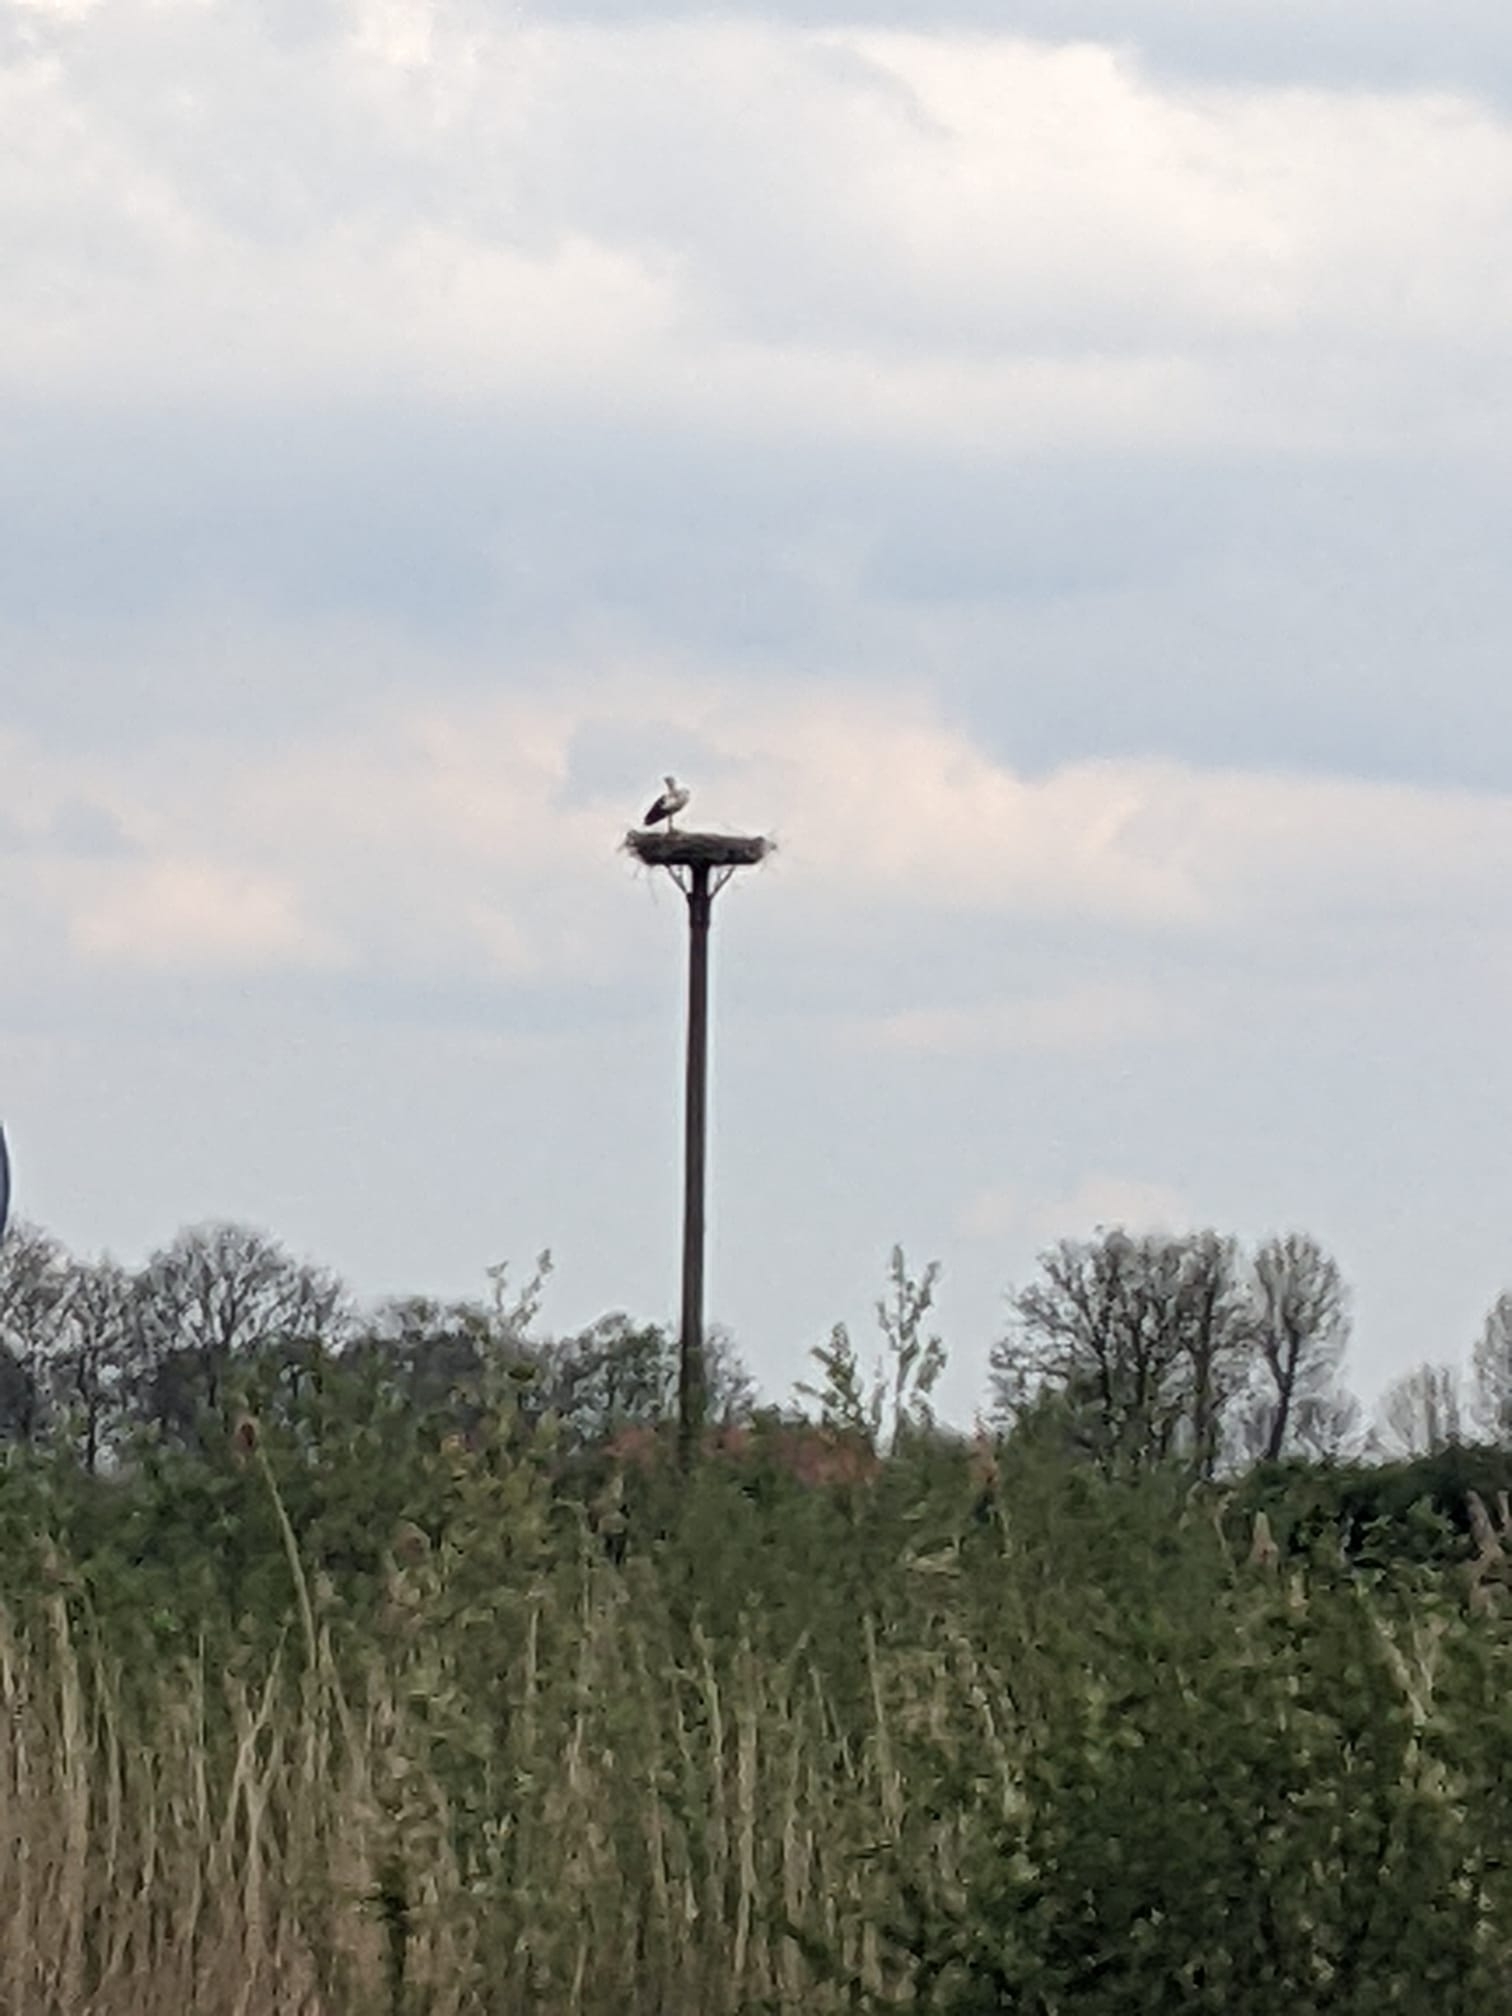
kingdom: Animalia
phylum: Chordata
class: Aves
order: Ciconiiformes
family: Ciconiidae
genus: Ciconia
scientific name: Ciconia ciconia
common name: White stork
